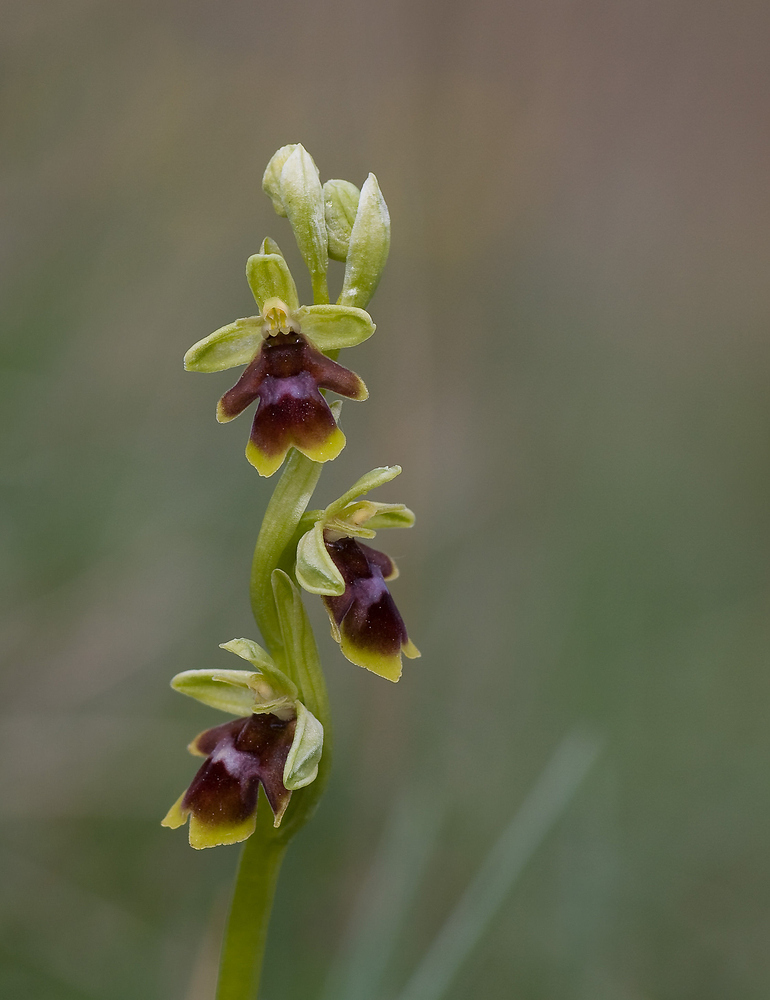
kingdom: Plantae
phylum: Tracheophyta
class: Liliopsida
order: Asparagales
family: Orchidaceae
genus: Ophrys
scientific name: Ophrys insectifera
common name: Fly orchid
